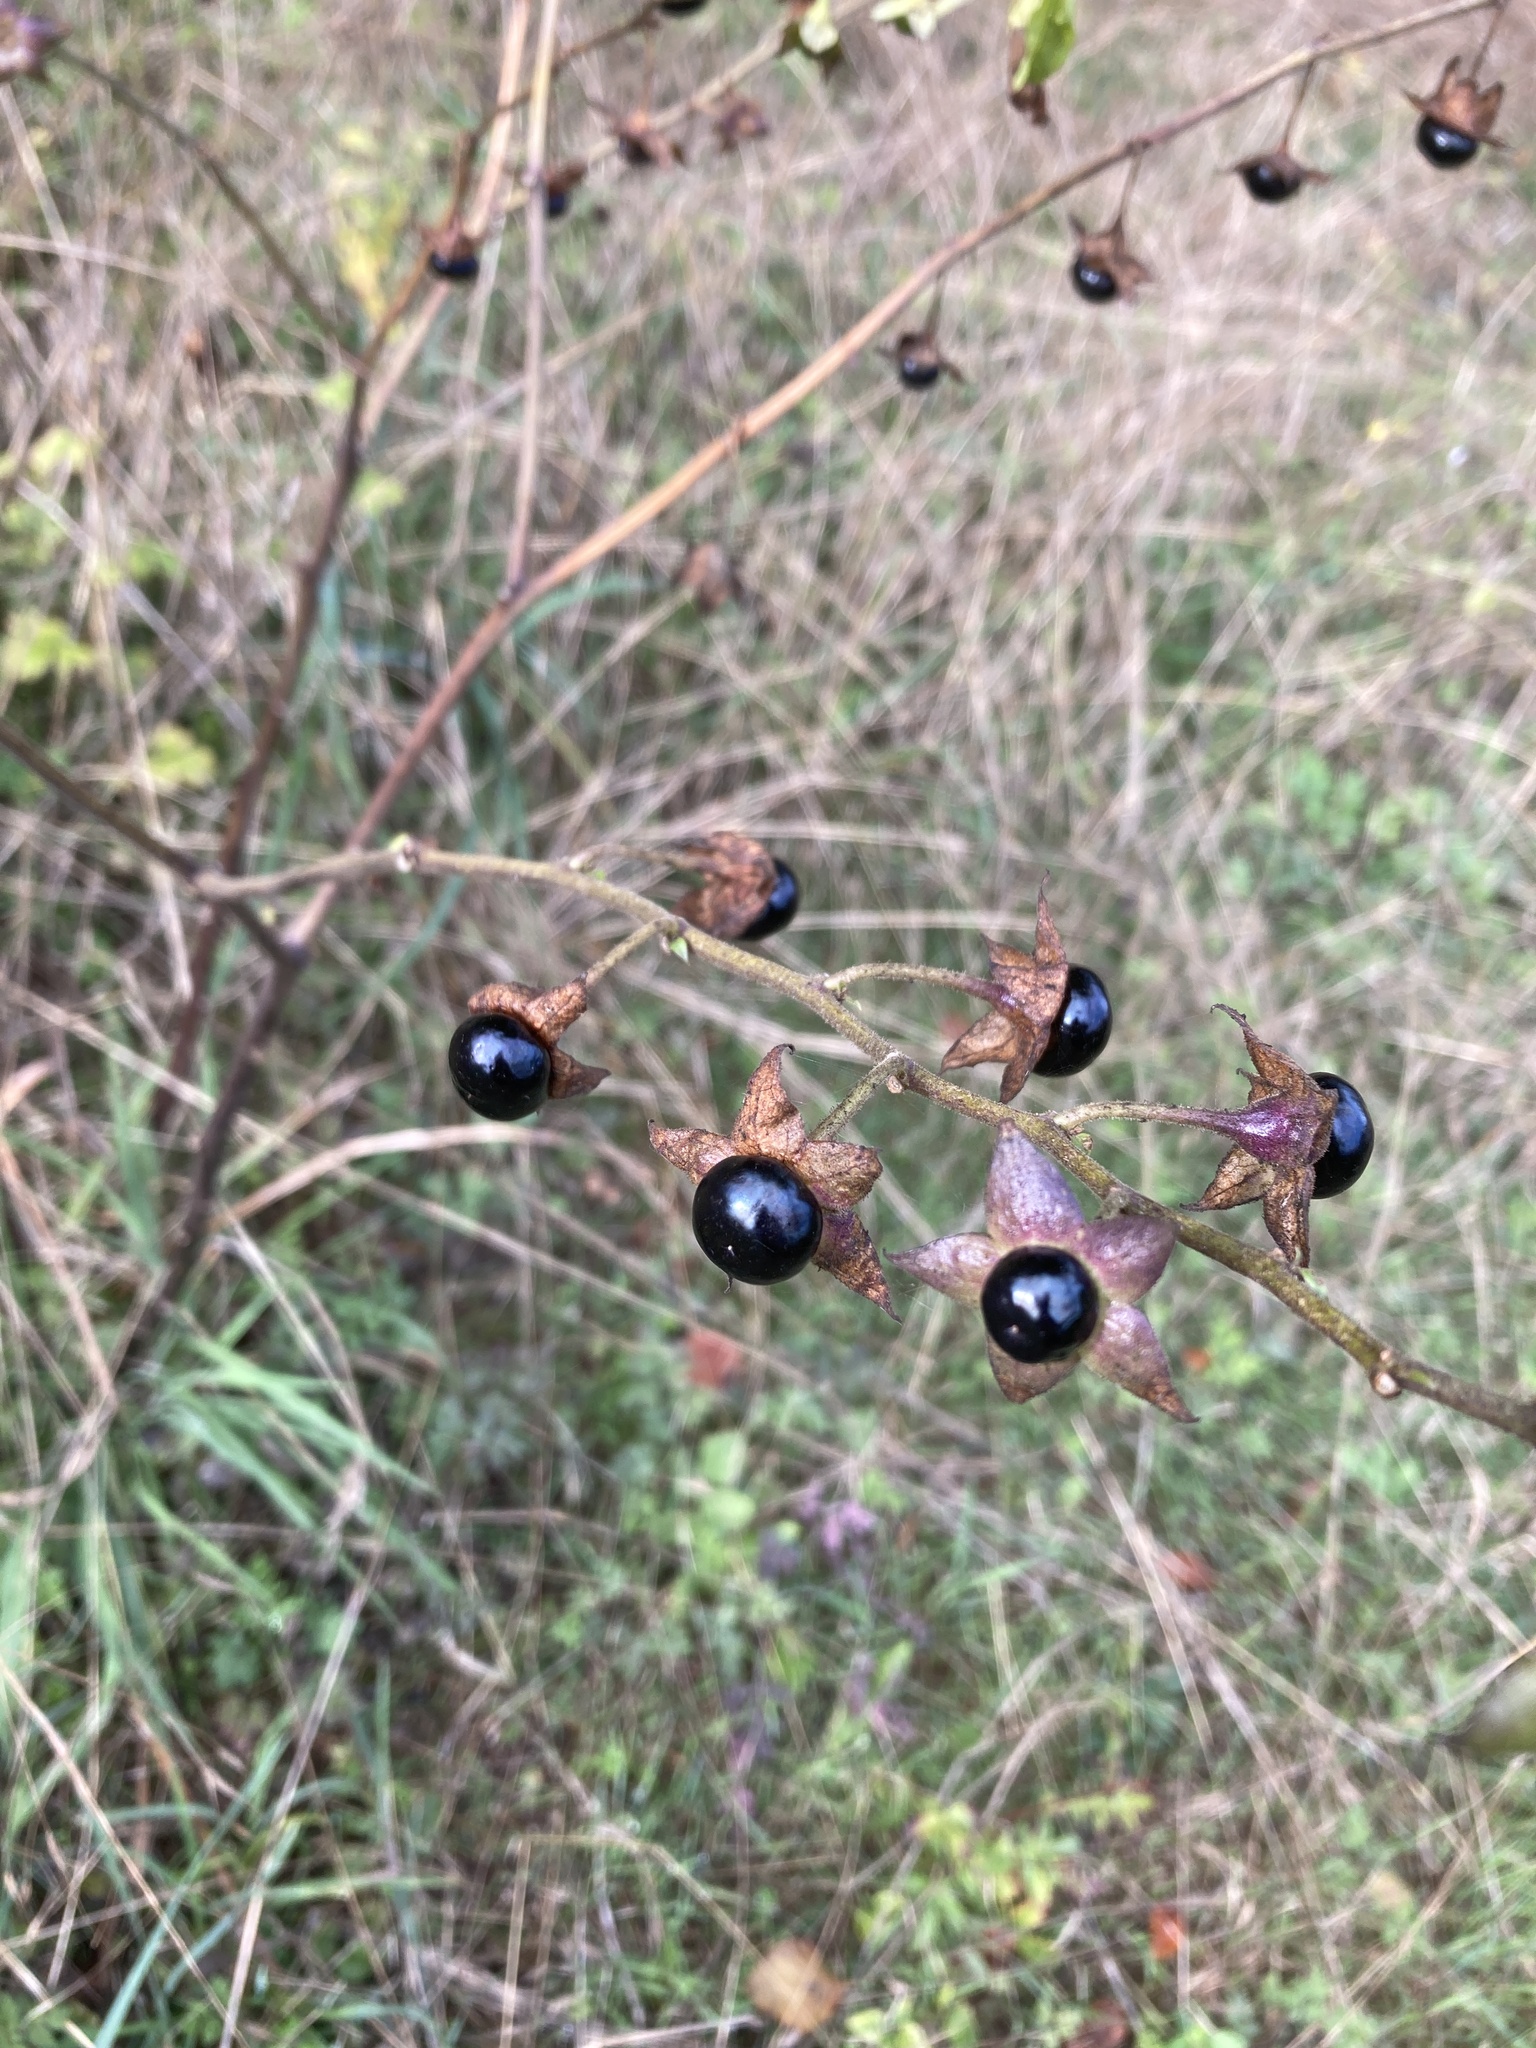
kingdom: Plantae
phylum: Tracheophyta
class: Magnoliopsida
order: Solanales
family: Solanaceae
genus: Atropa
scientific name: Atropa belladonna
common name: Deadly nightshade
